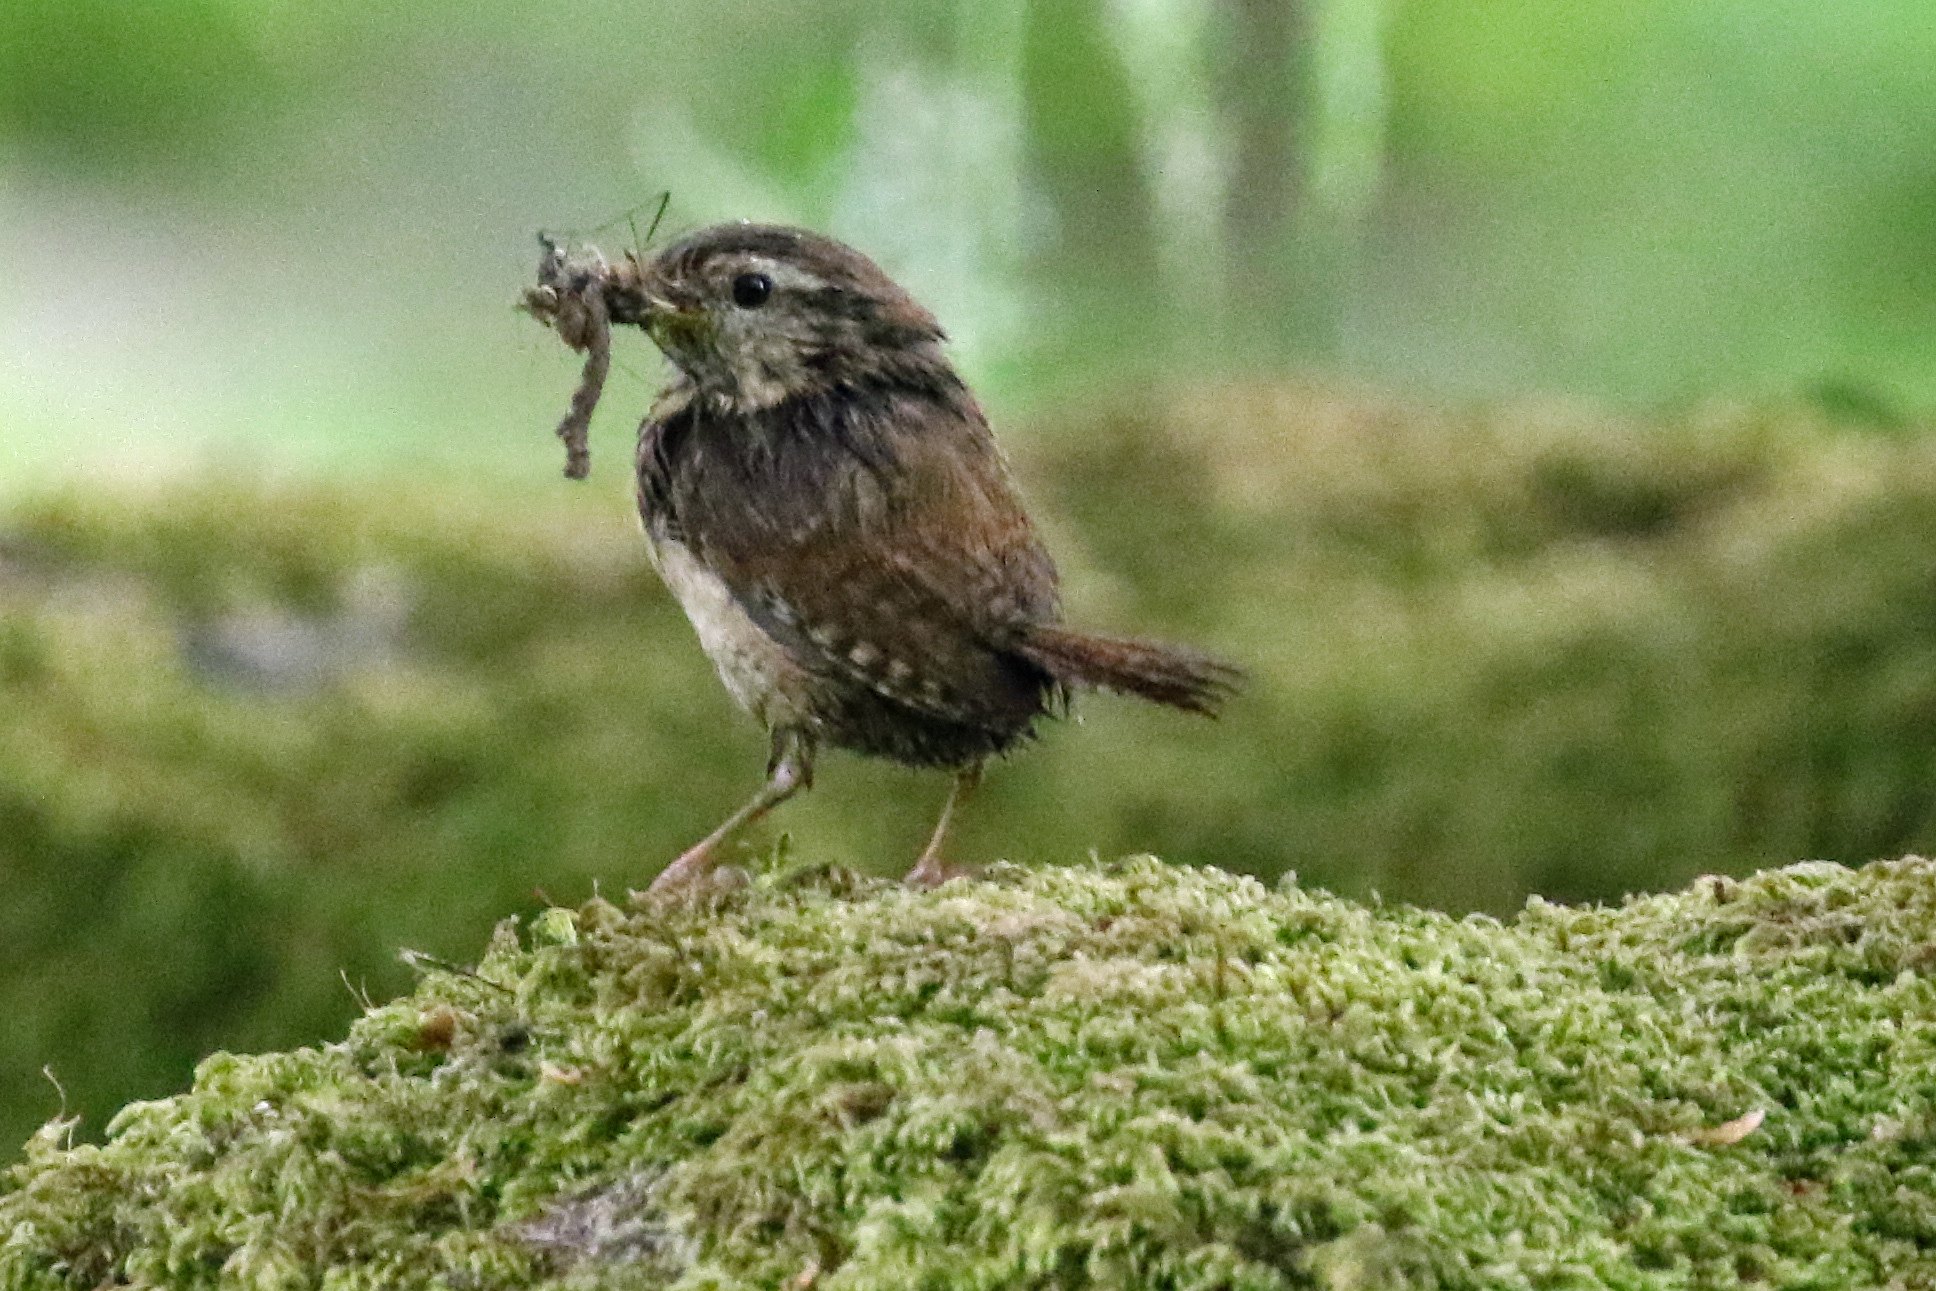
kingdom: Animalia
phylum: Chordata
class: Aves
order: Passeriformes
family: Troglodytidae
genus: Troglodytes
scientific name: Troglodytes troglodytes
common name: Eurasian wren
